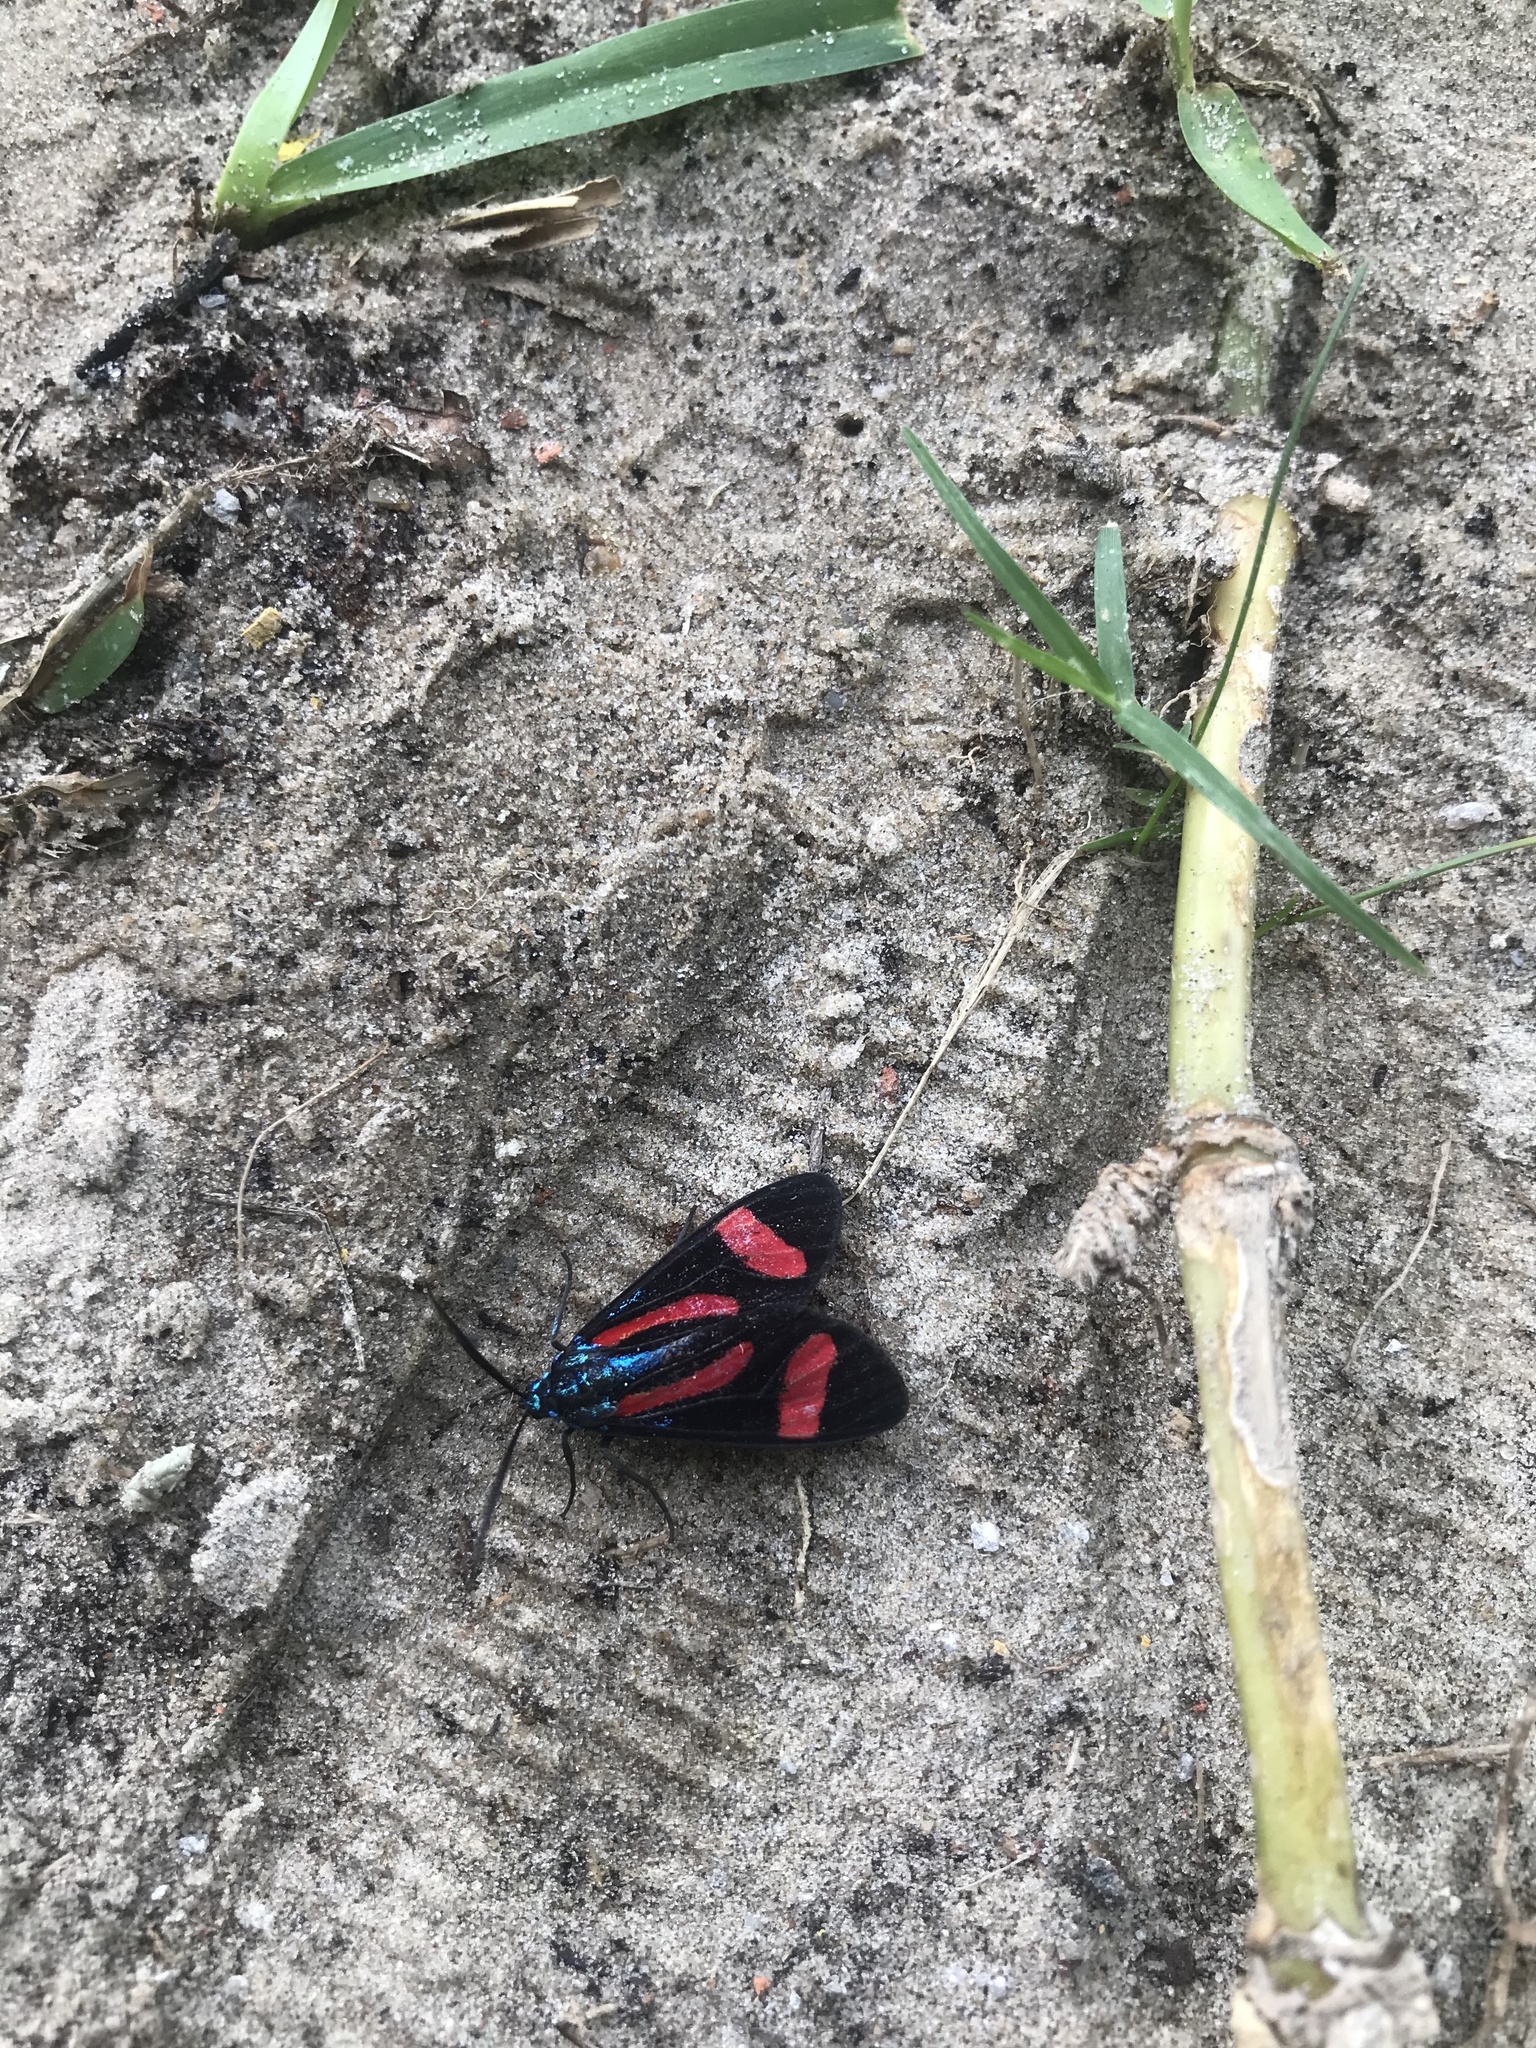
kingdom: Animalia
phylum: Arthropoda
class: Insecta
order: Lepidoptera
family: Erebidae
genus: Cyanopepla
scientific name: Cyanopepla jucunda
